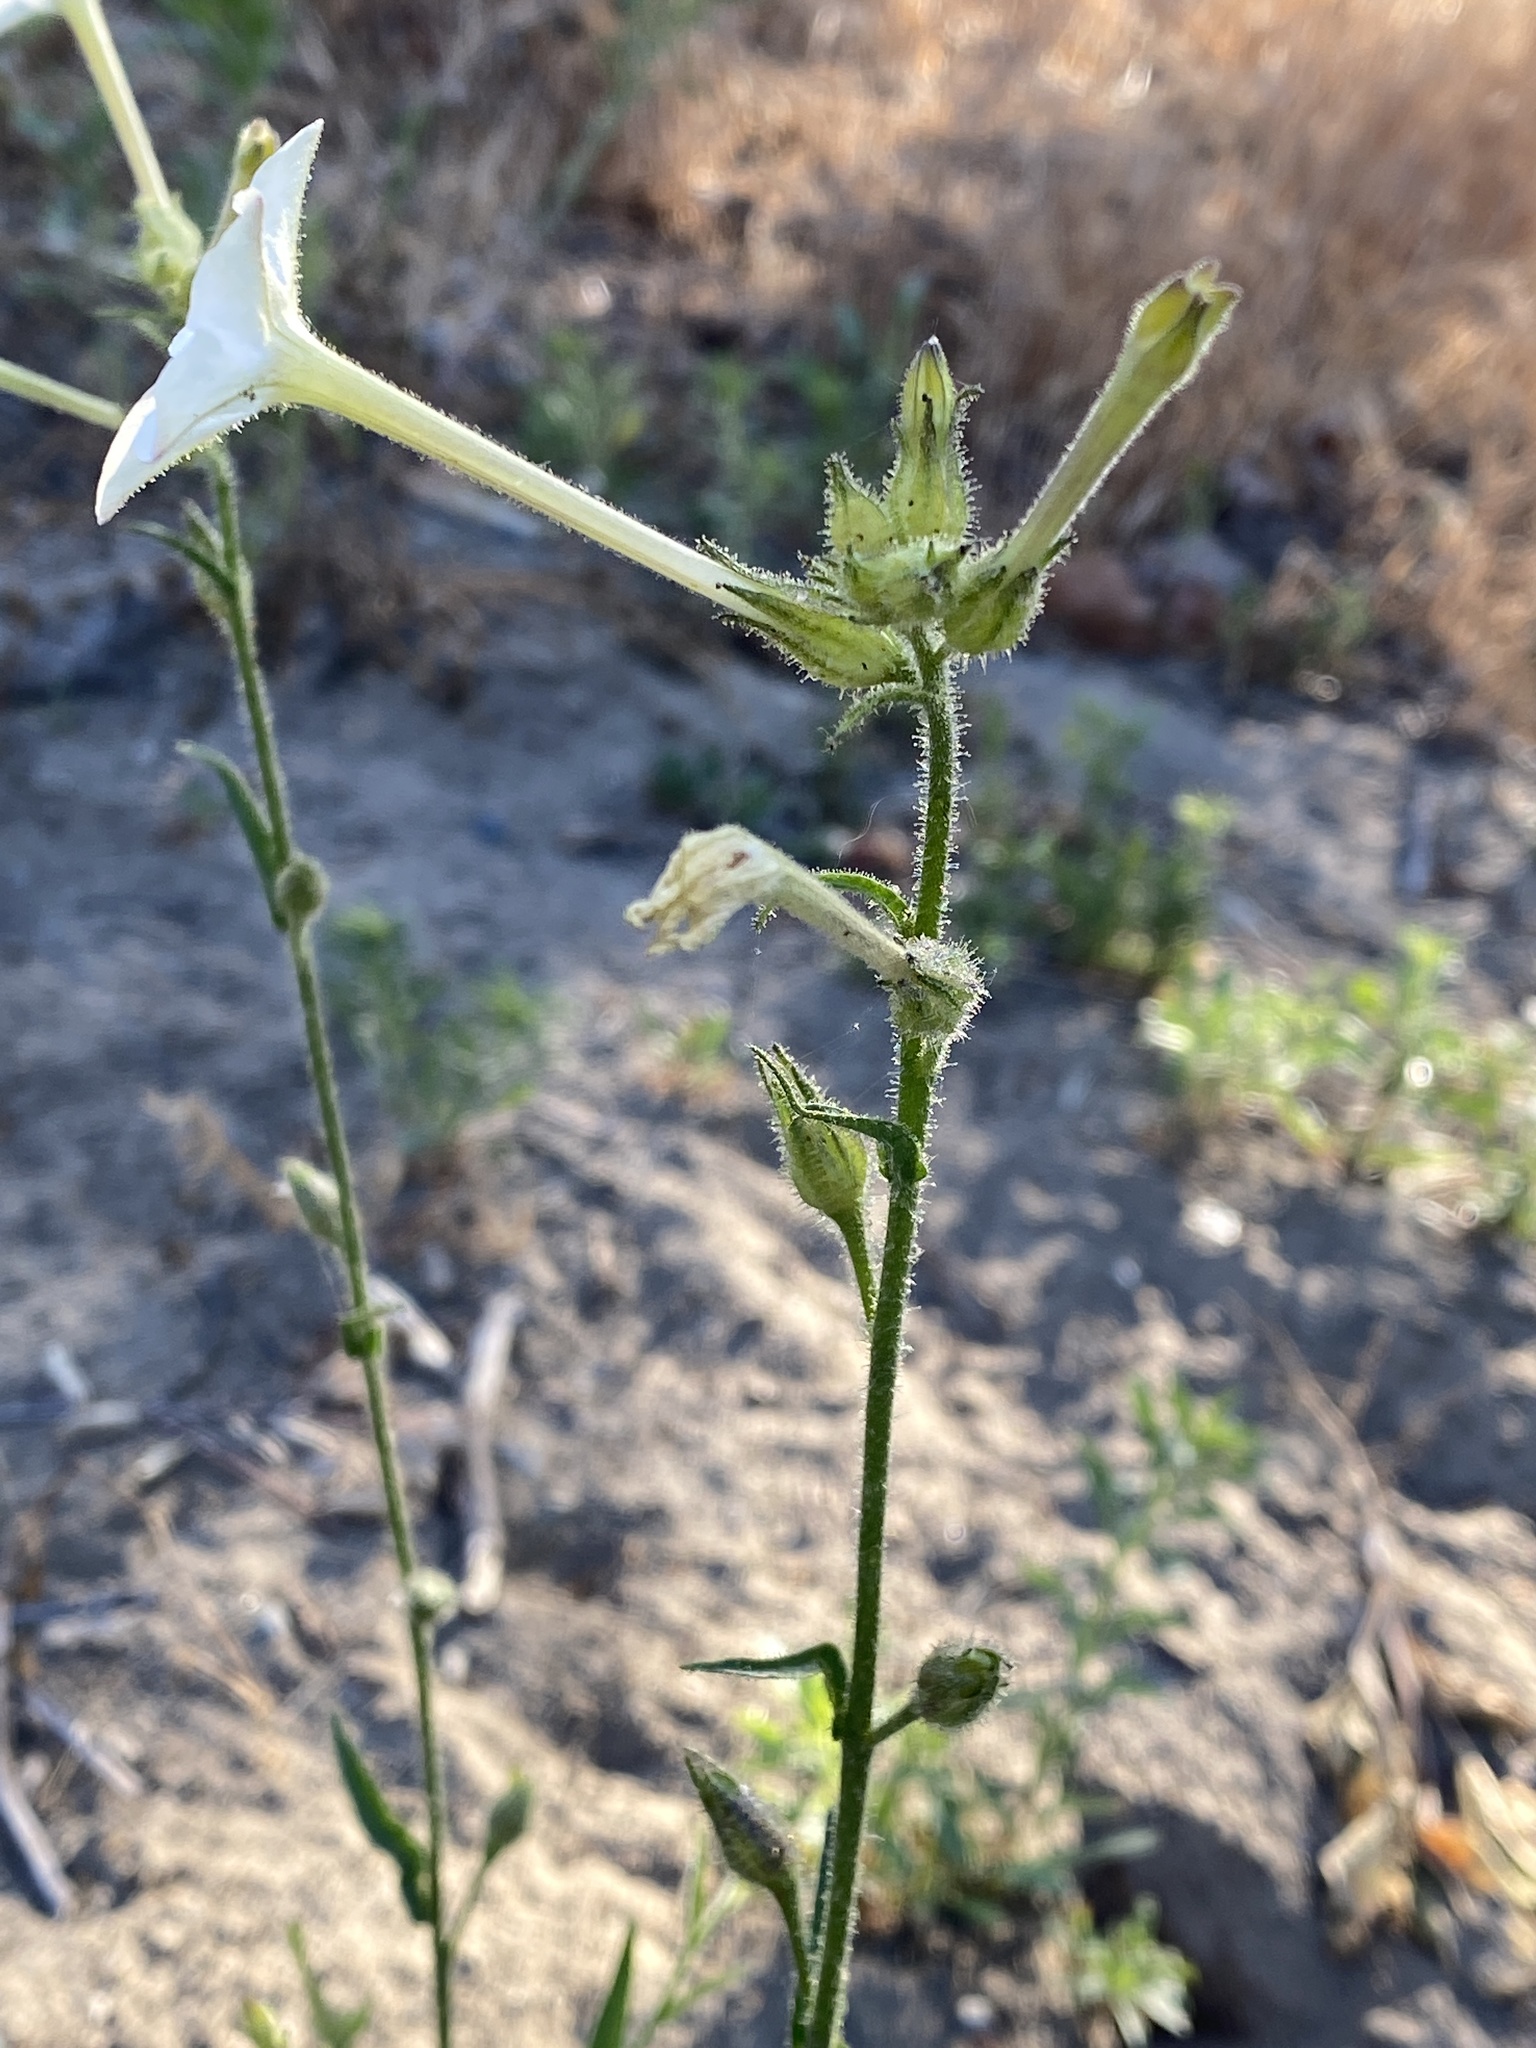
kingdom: Plantae
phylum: Tracheophyta
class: Magnoliopsida
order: Solanales
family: Solanaceae
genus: Nicotiana
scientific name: Nicotiana quadrivalvis
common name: Indian tobacco
